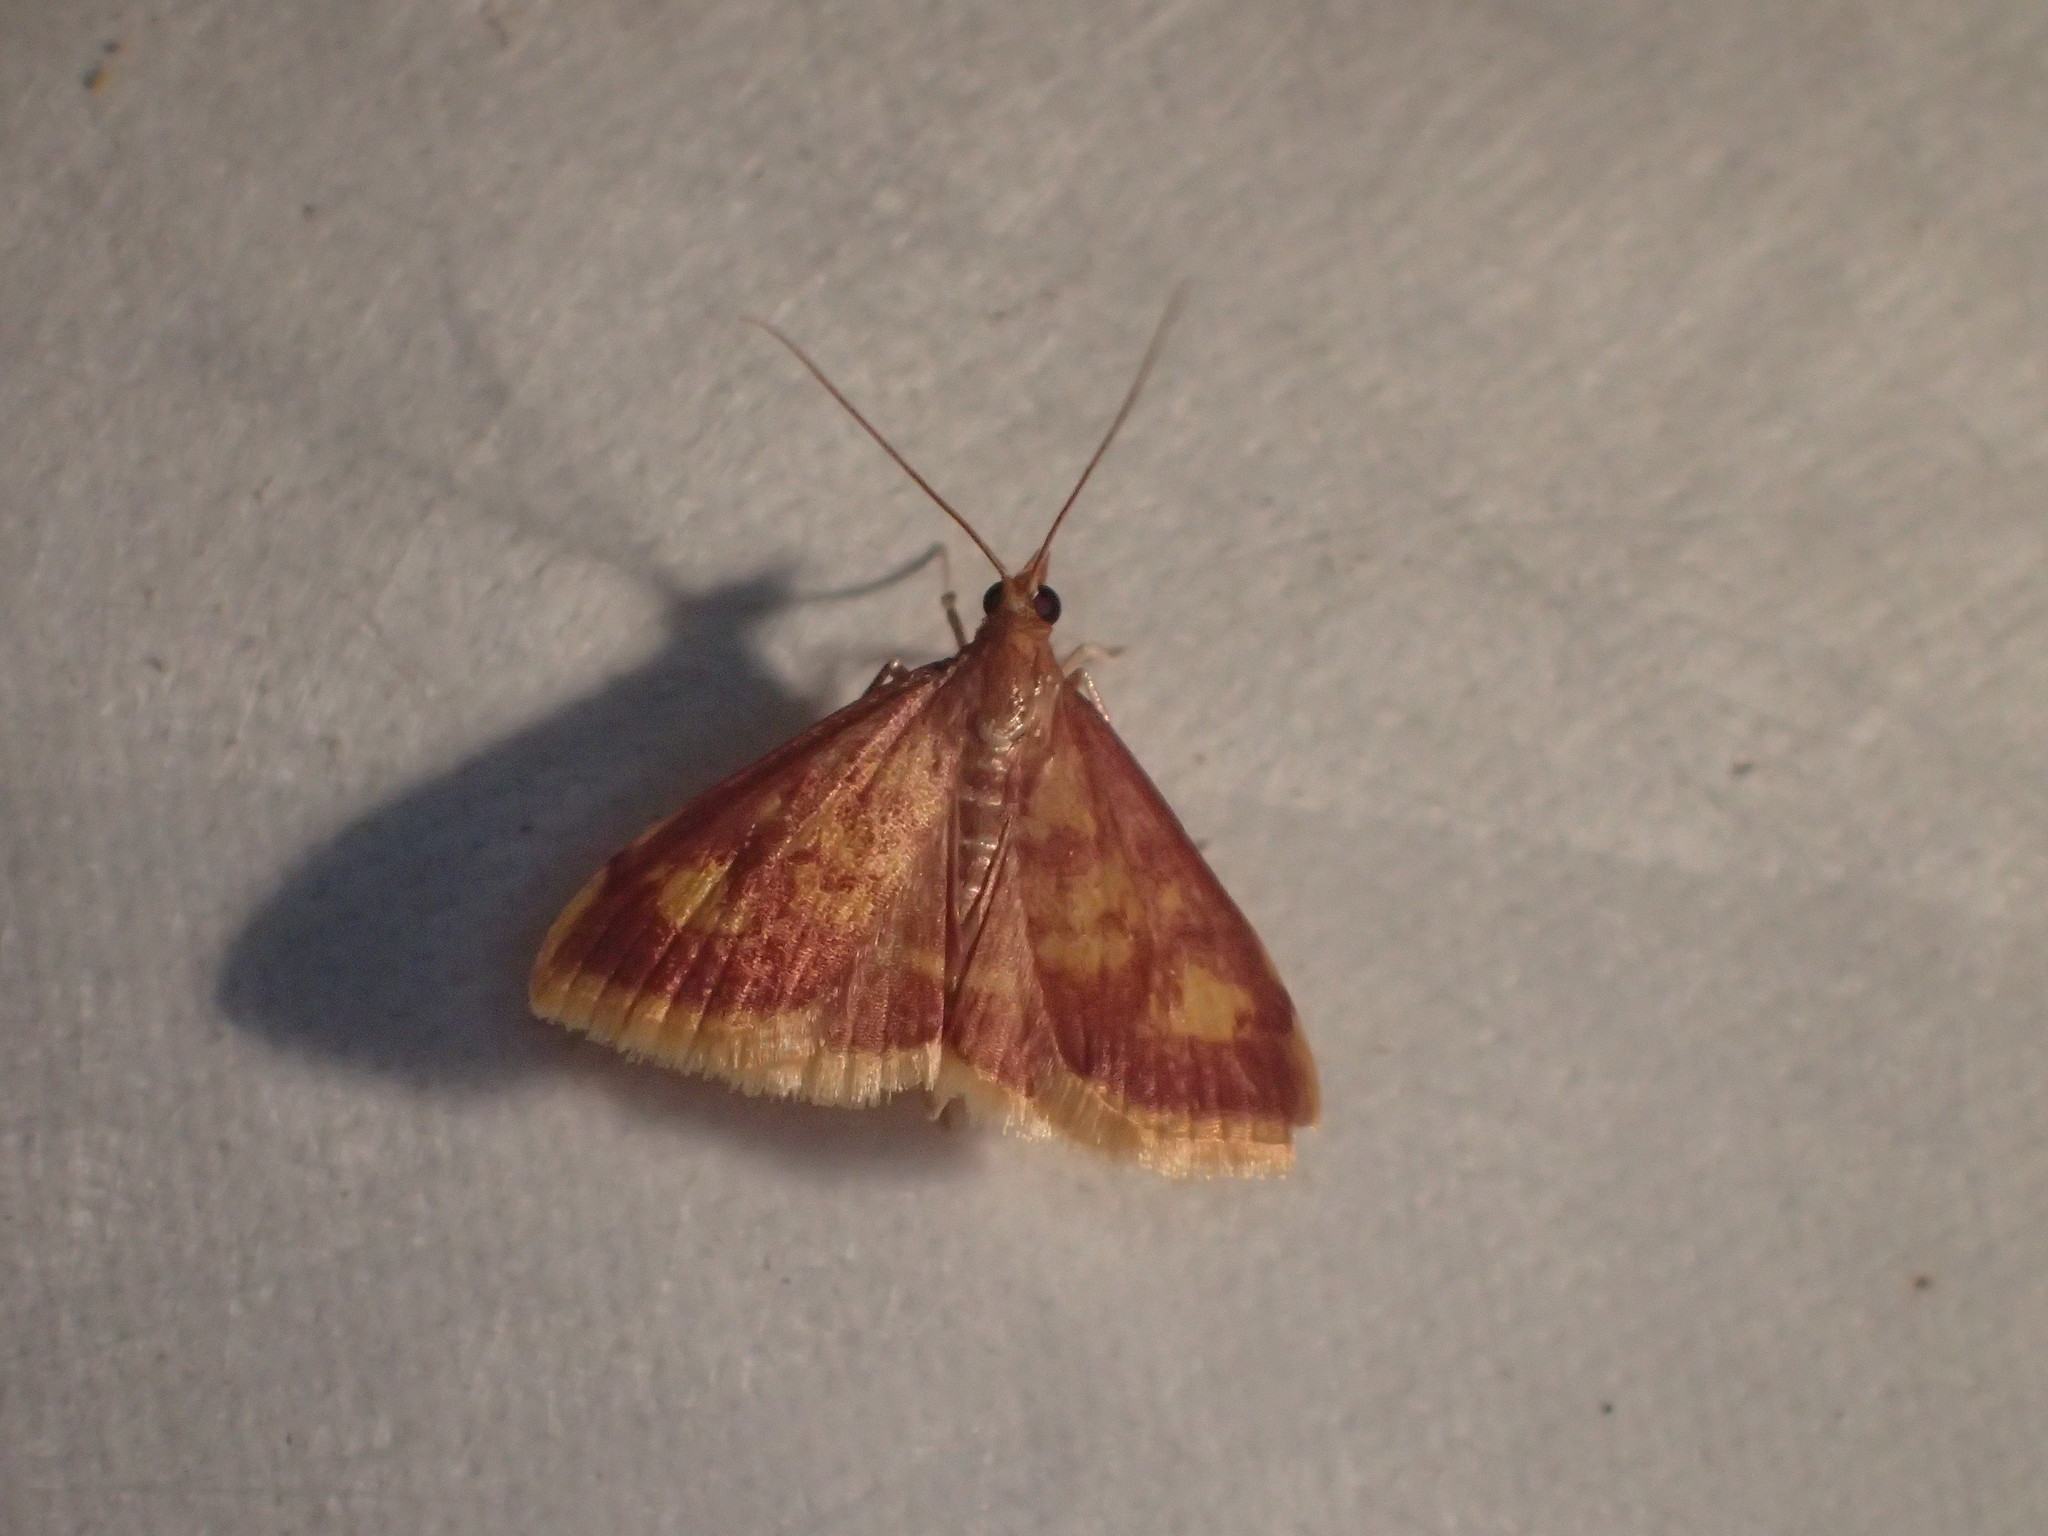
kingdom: Animalia
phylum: Arthropoda
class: Insecta
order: Lepidoptera
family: Crambidae
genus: Pyrausta
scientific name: Pyrausta acrionalis
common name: Mint-loving pyrausta moth
